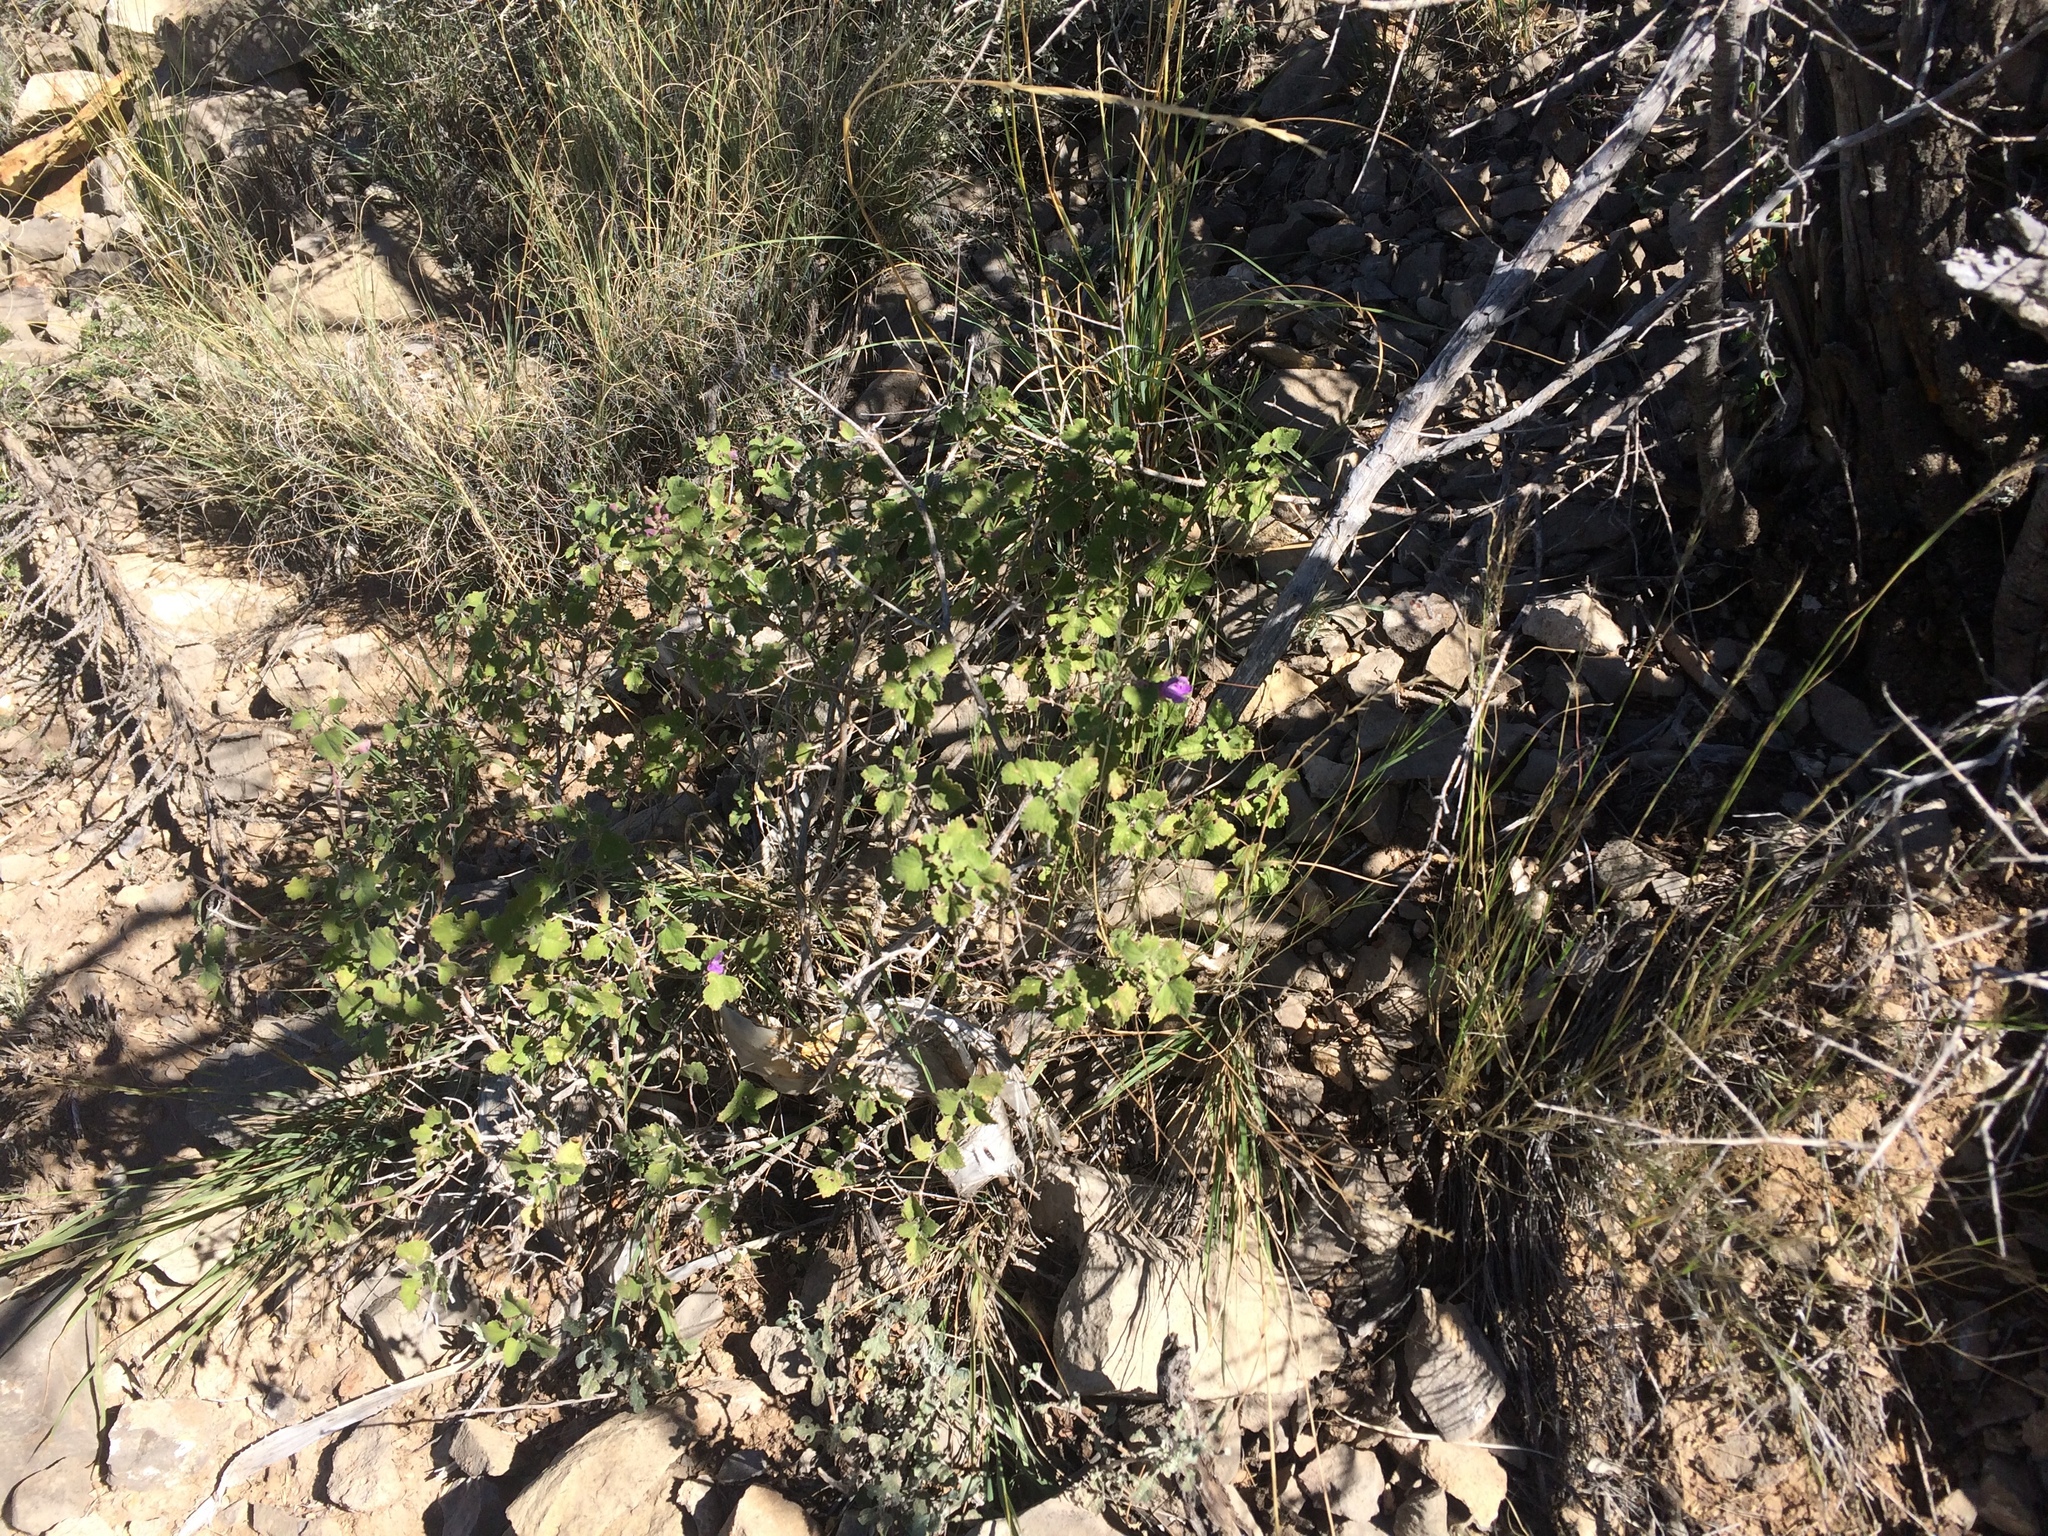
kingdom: Plantae
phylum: Tracheophyta
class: Magnoliopsida
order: Lamiales
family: Lamiaceae
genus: Salvia
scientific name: Salvia pinguifolia
